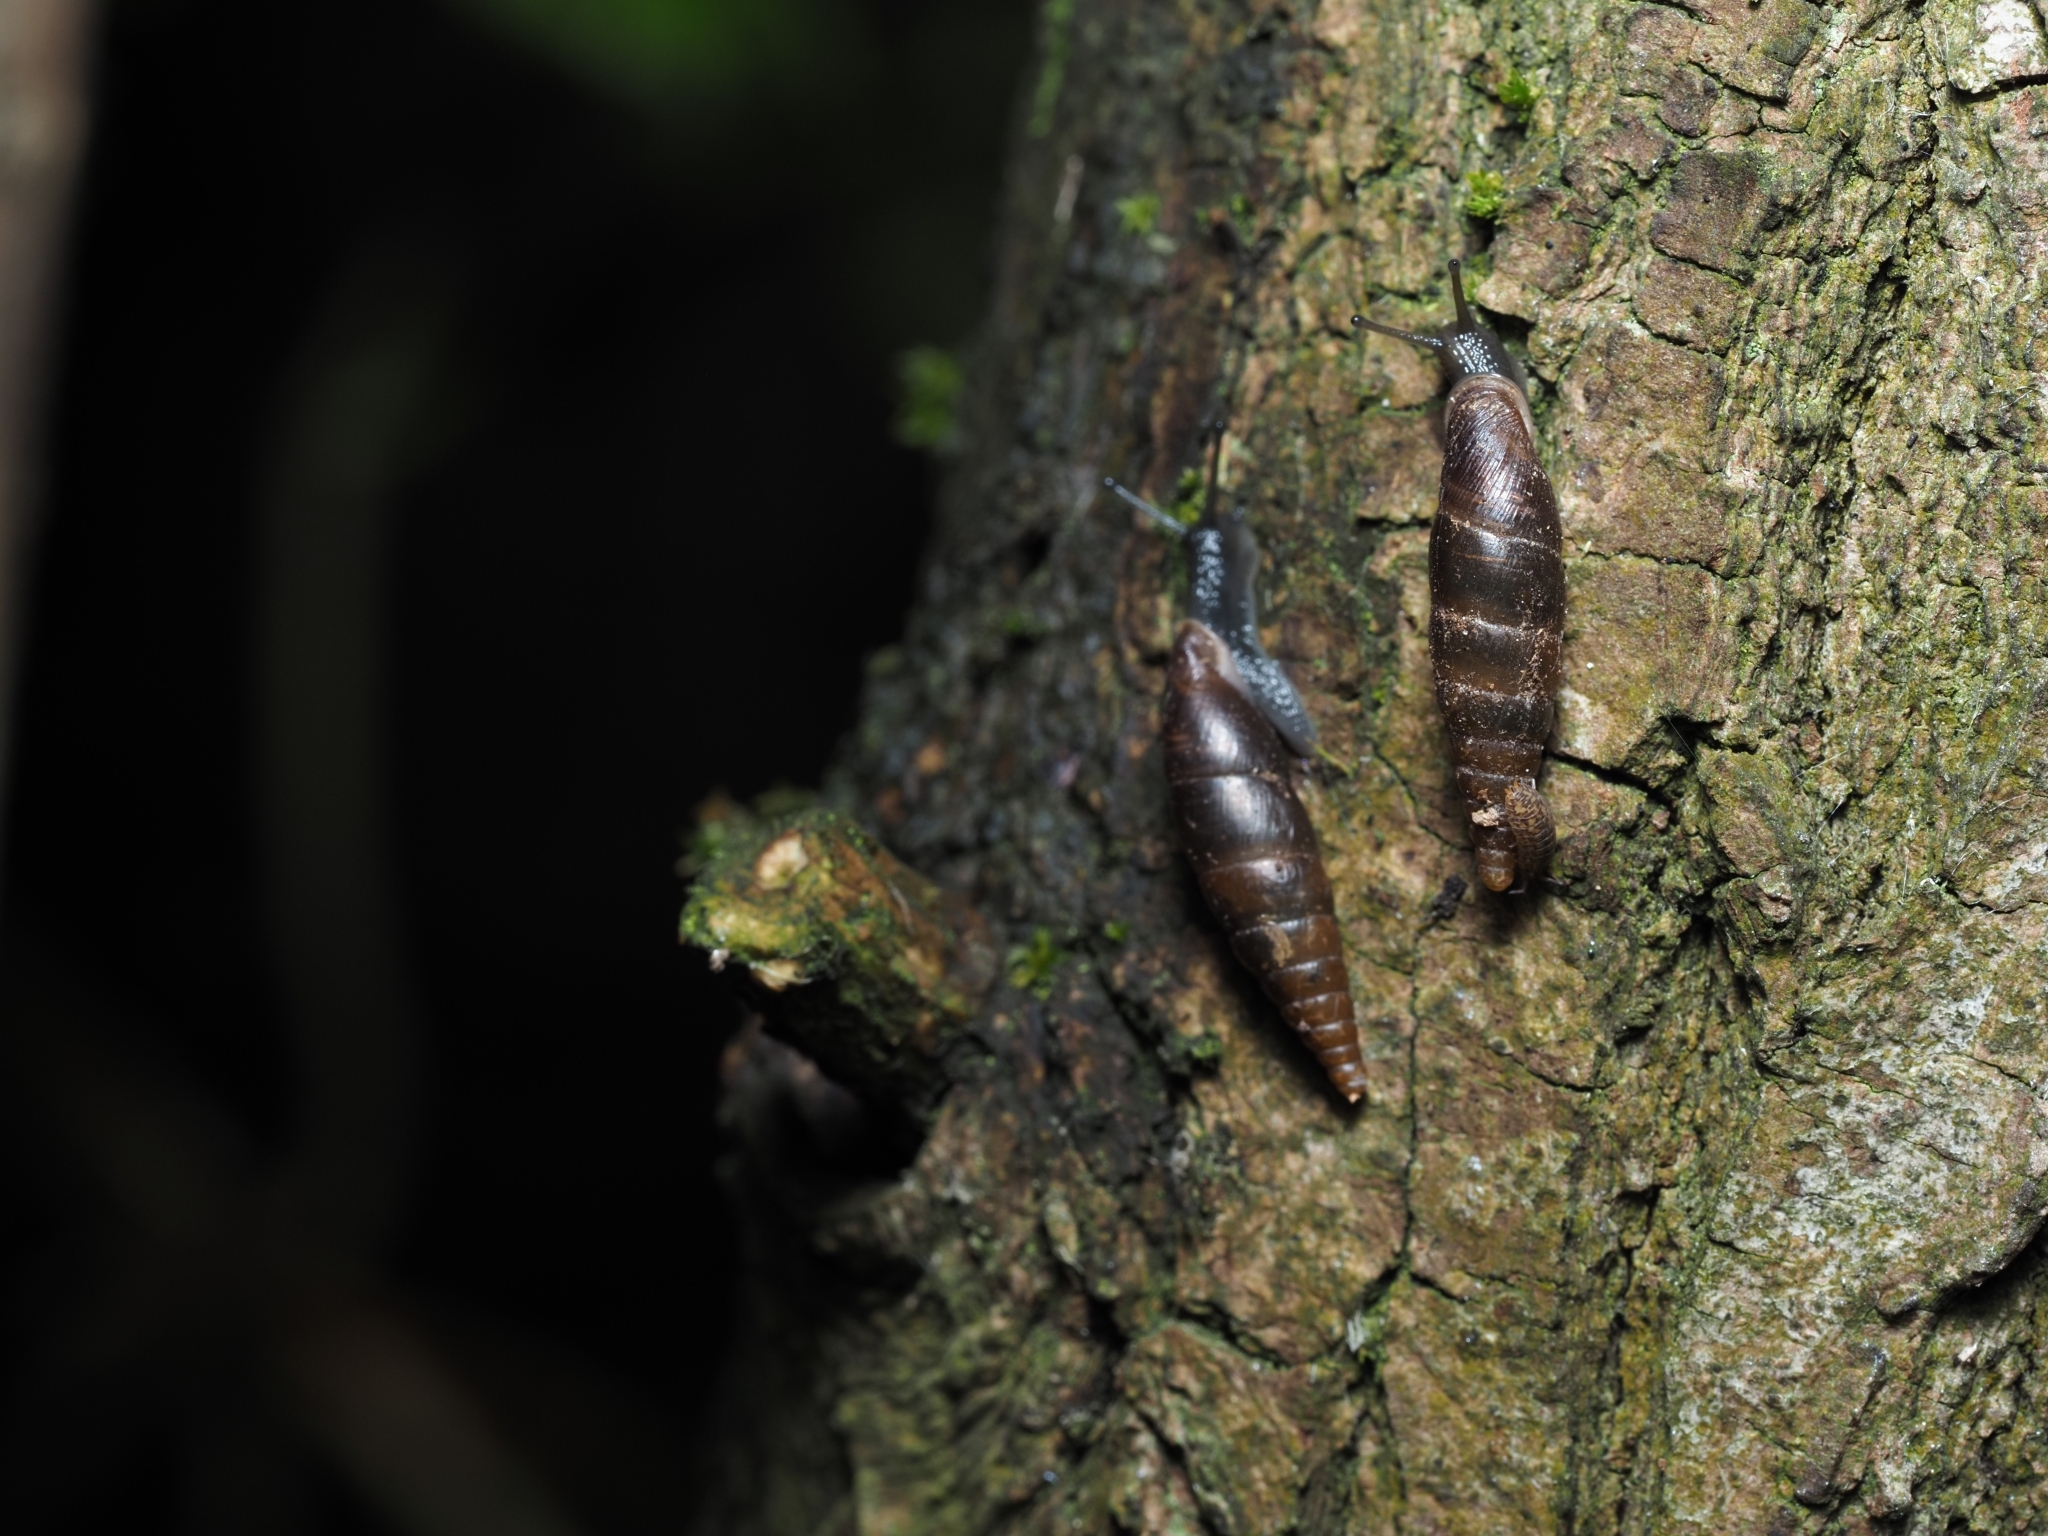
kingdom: Animalia
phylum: Mollusca
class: Gastropoda
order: Stylommatophora
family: Clausiliidae
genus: Cochlodina
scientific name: Cochlodina laminata
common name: Plaited door snail
